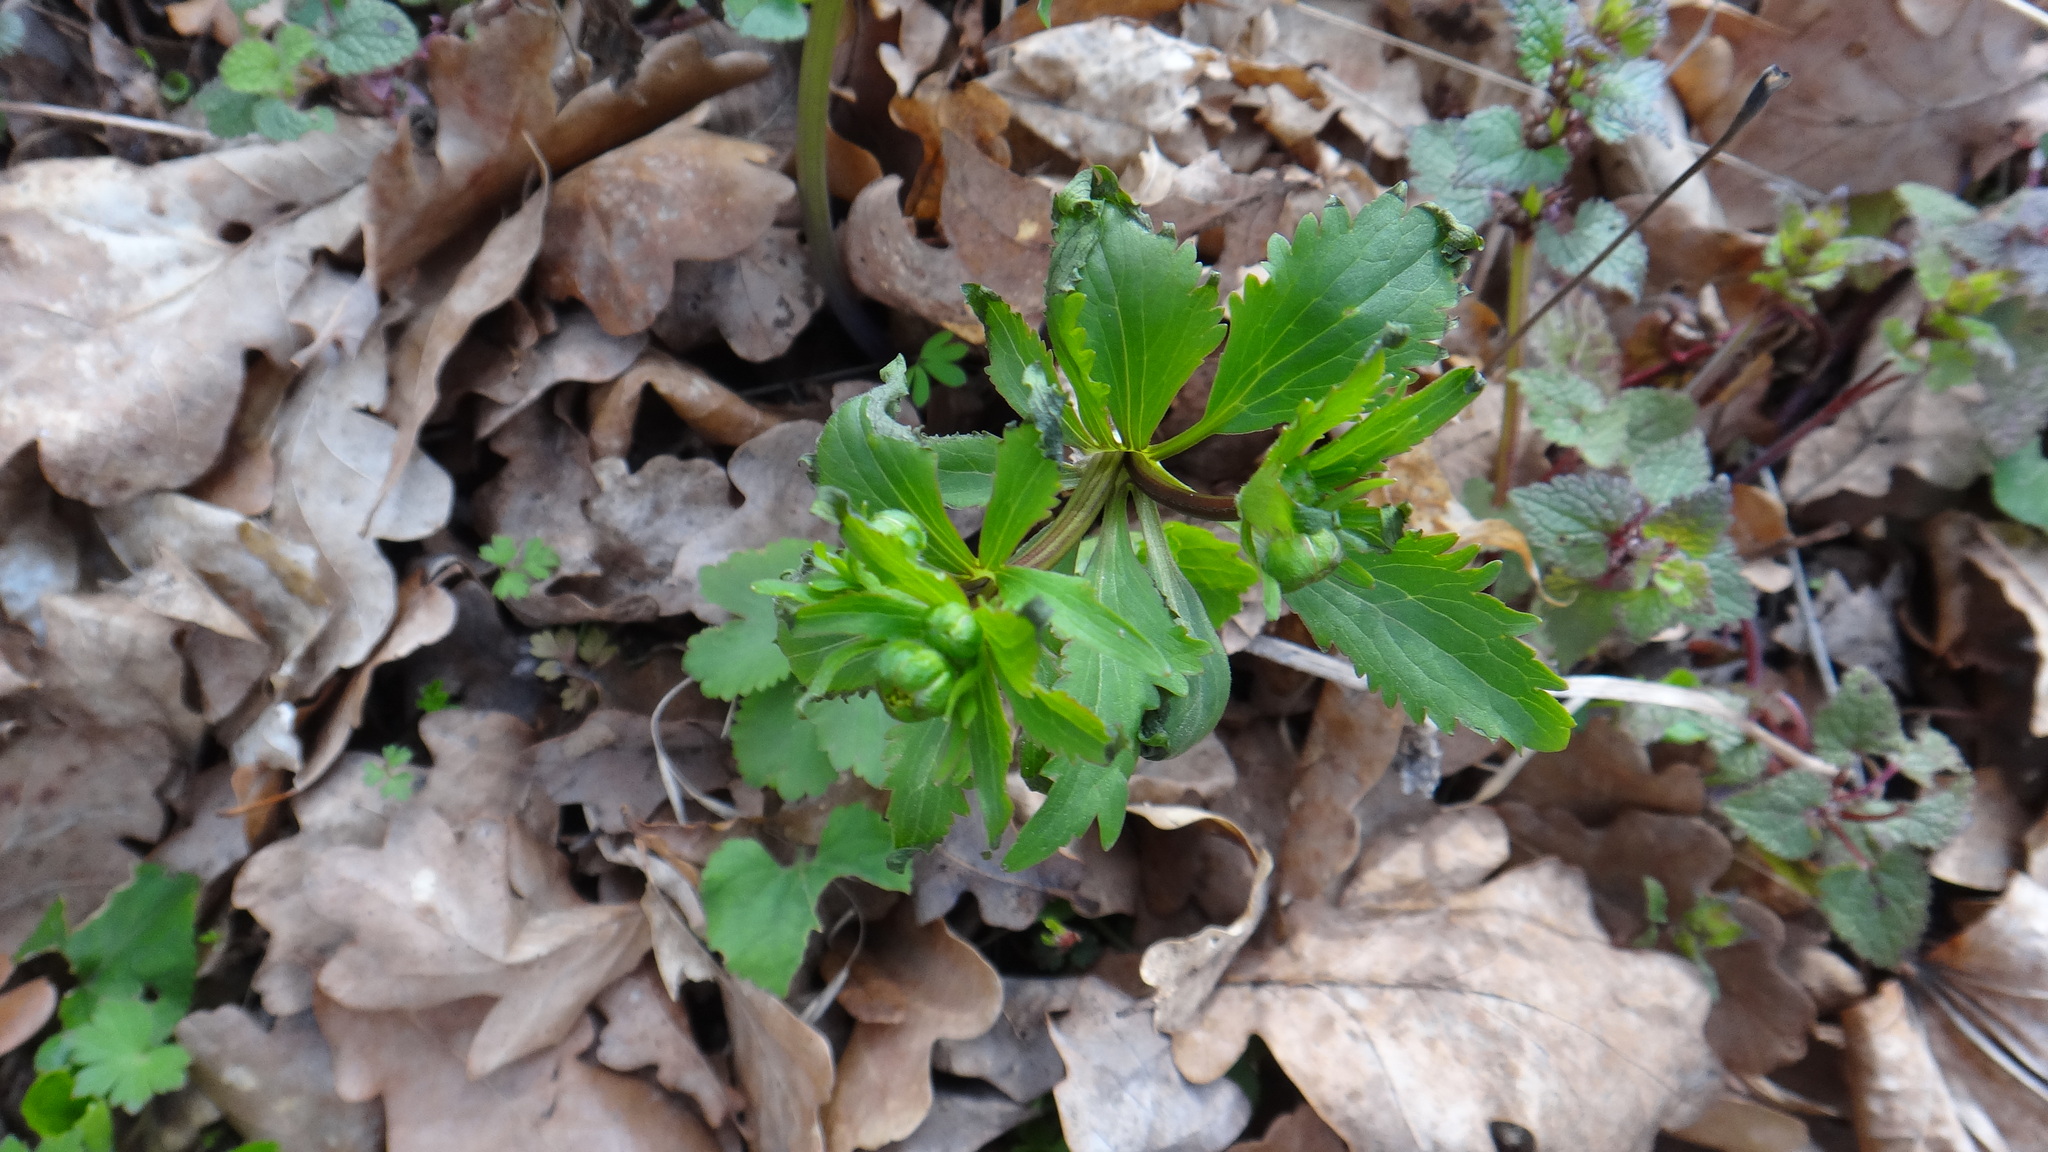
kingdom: Plantae
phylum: Tracheophyta
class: Magnoliopsida
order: Ranunculales
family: Ranunculaceae
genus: Ranunculus
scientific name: Ranunculus cassubicus
